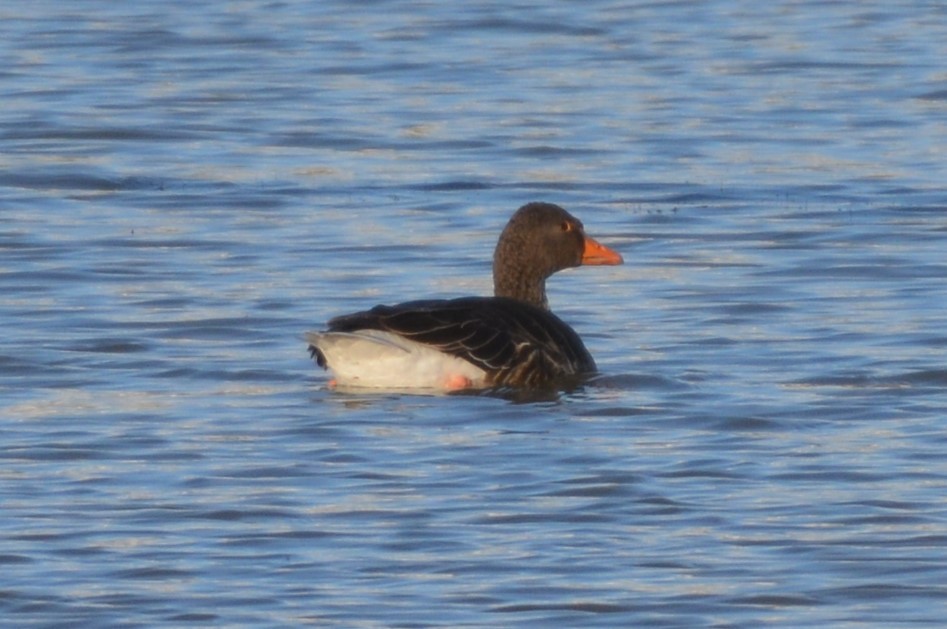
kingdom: Animalia
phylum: Chordata
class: Aves
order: Anseriformes
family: Anatidae
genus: Anser
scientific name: Anser anser
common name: Greylag goose
